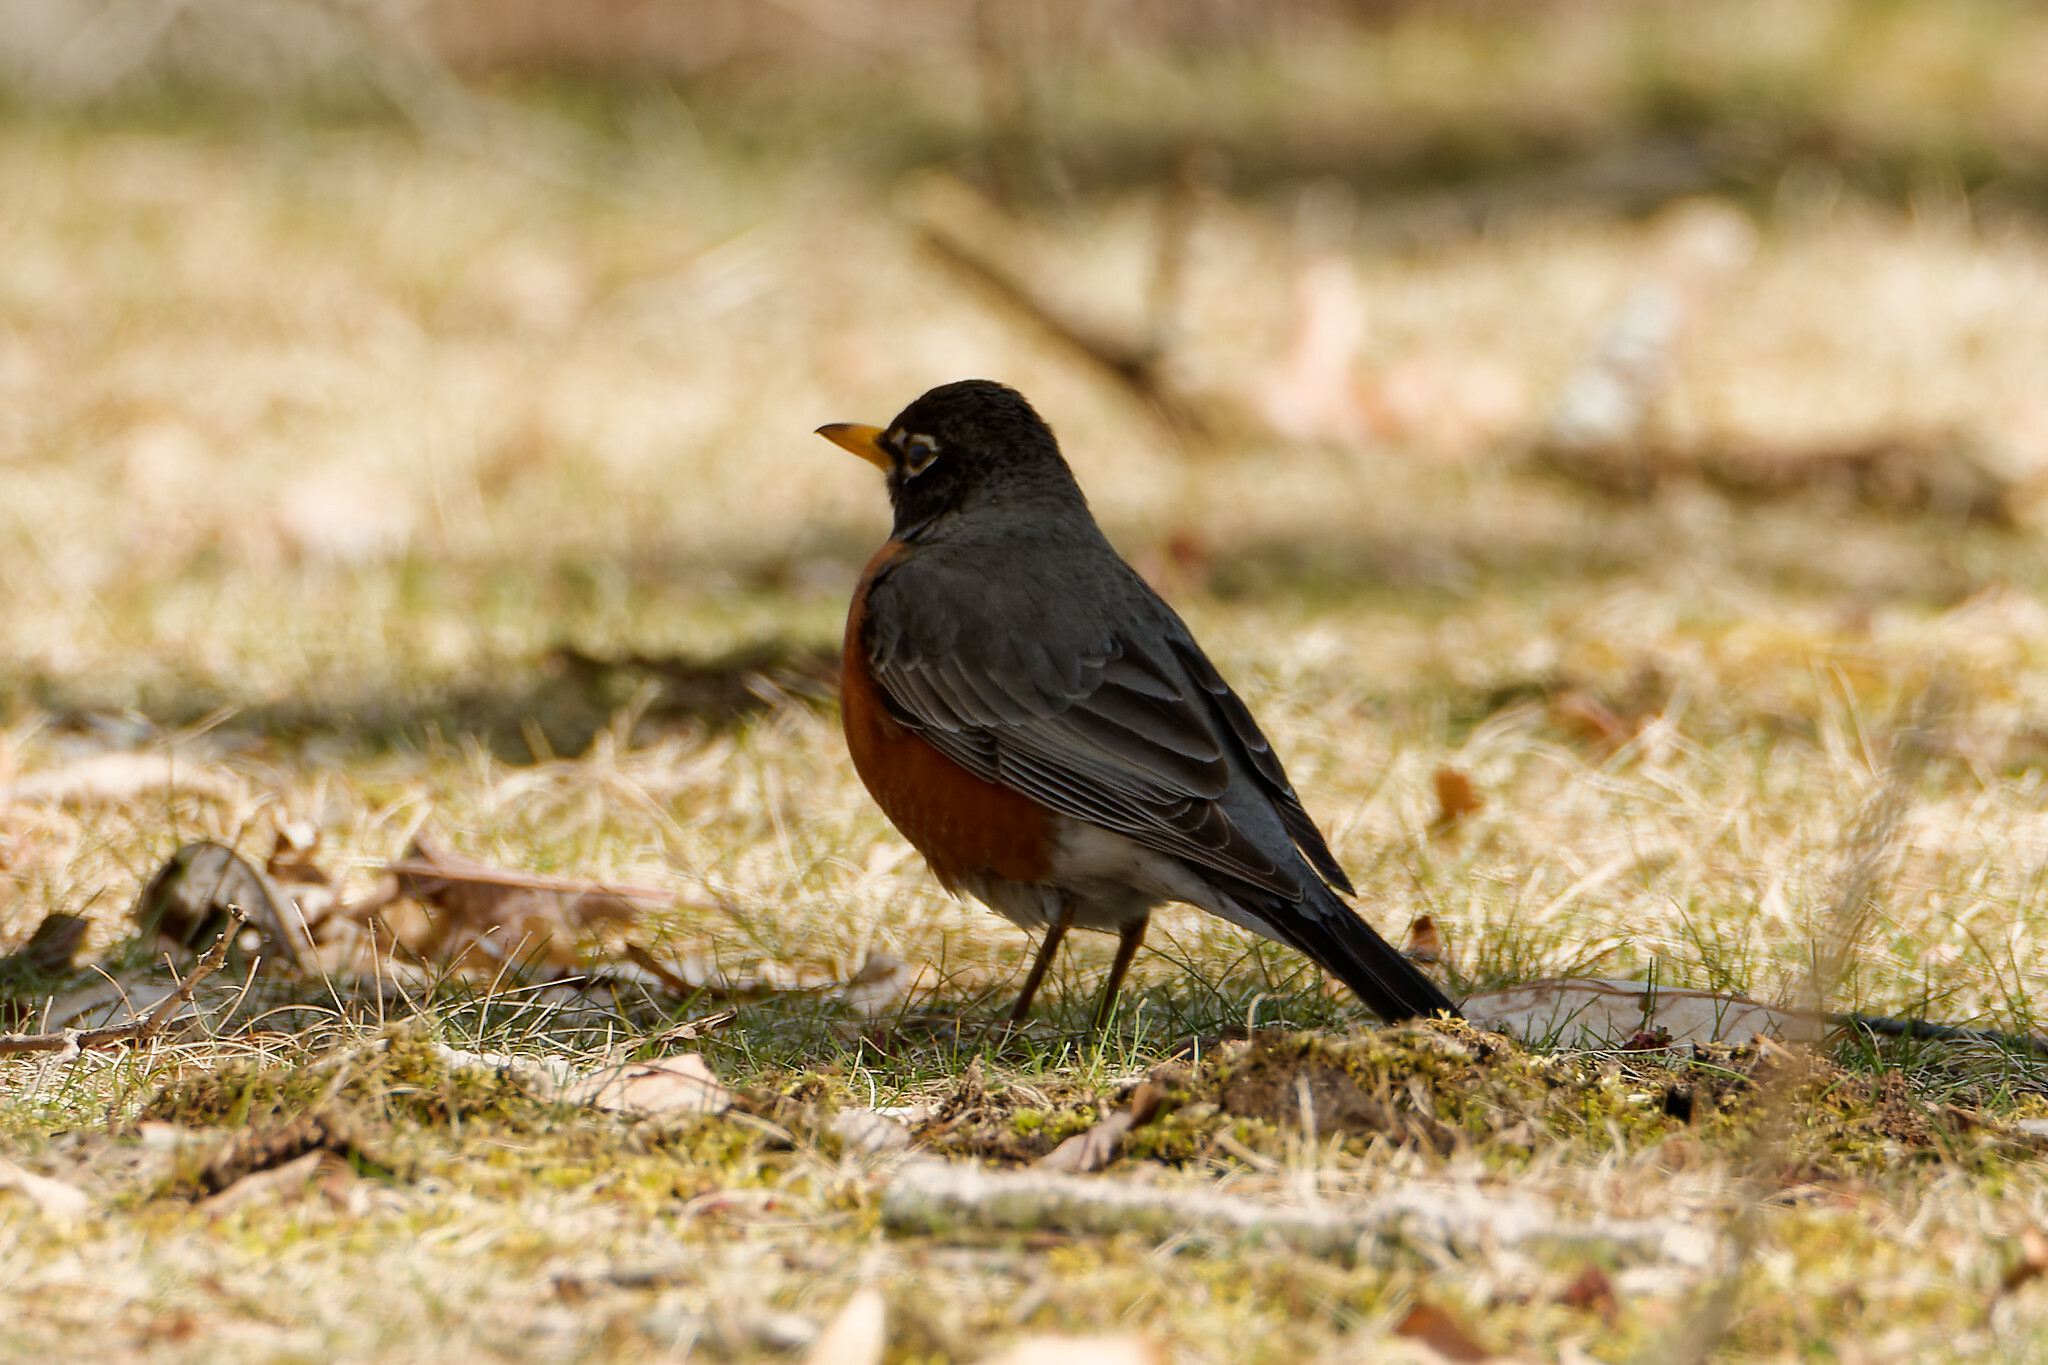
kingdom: Animalia
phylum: Chordata
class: Aves
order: Passeriformes
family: Turdidae
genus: Turdus
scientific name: Turdus migratorius
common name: American robin
